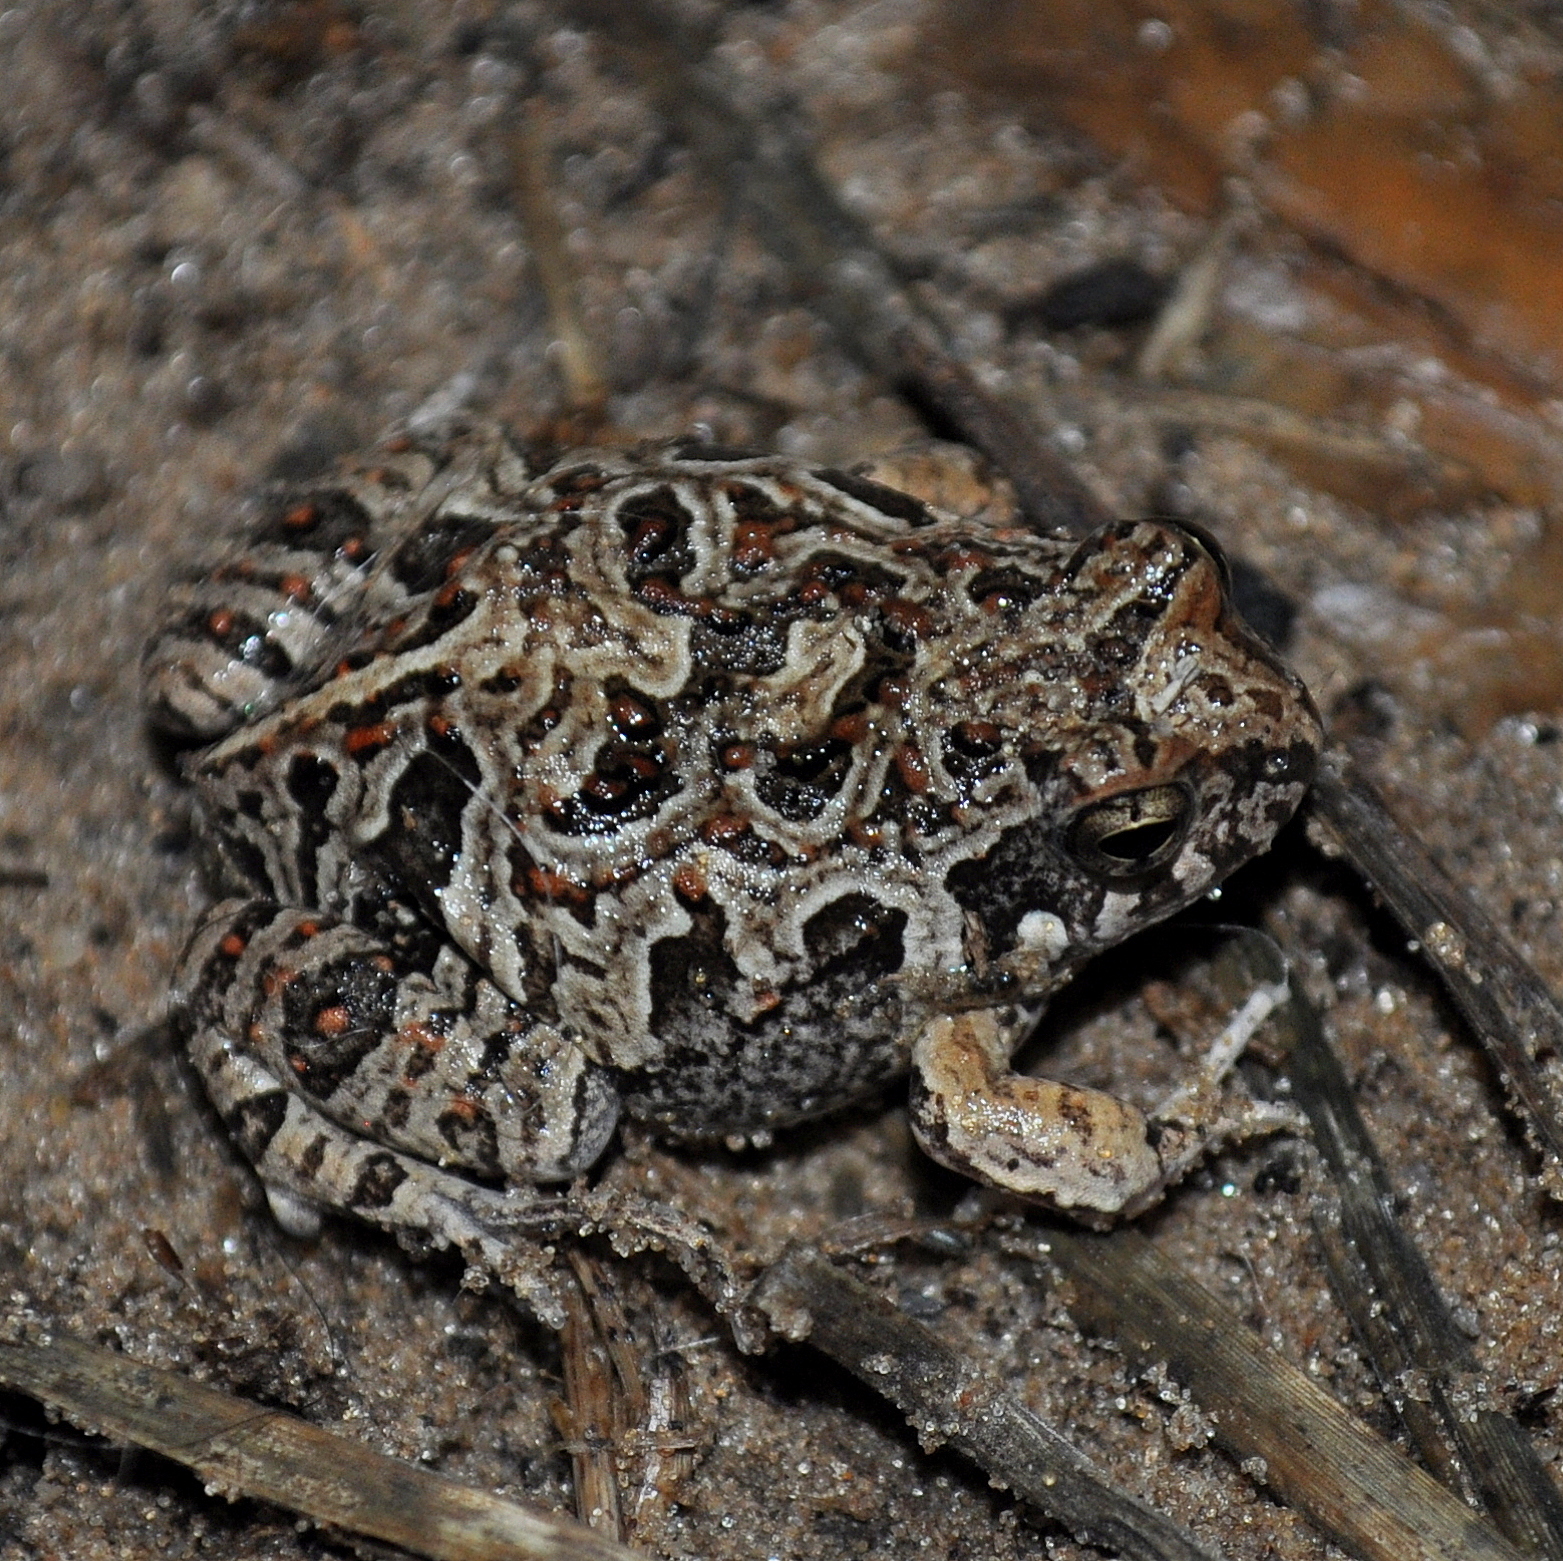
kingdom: Animalia
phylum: Chordata
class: Amphibia
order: Anura
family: Leptodactylidae
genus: Physalaemus
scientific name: Physalaemus biligonigerus
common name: Weeping frog
